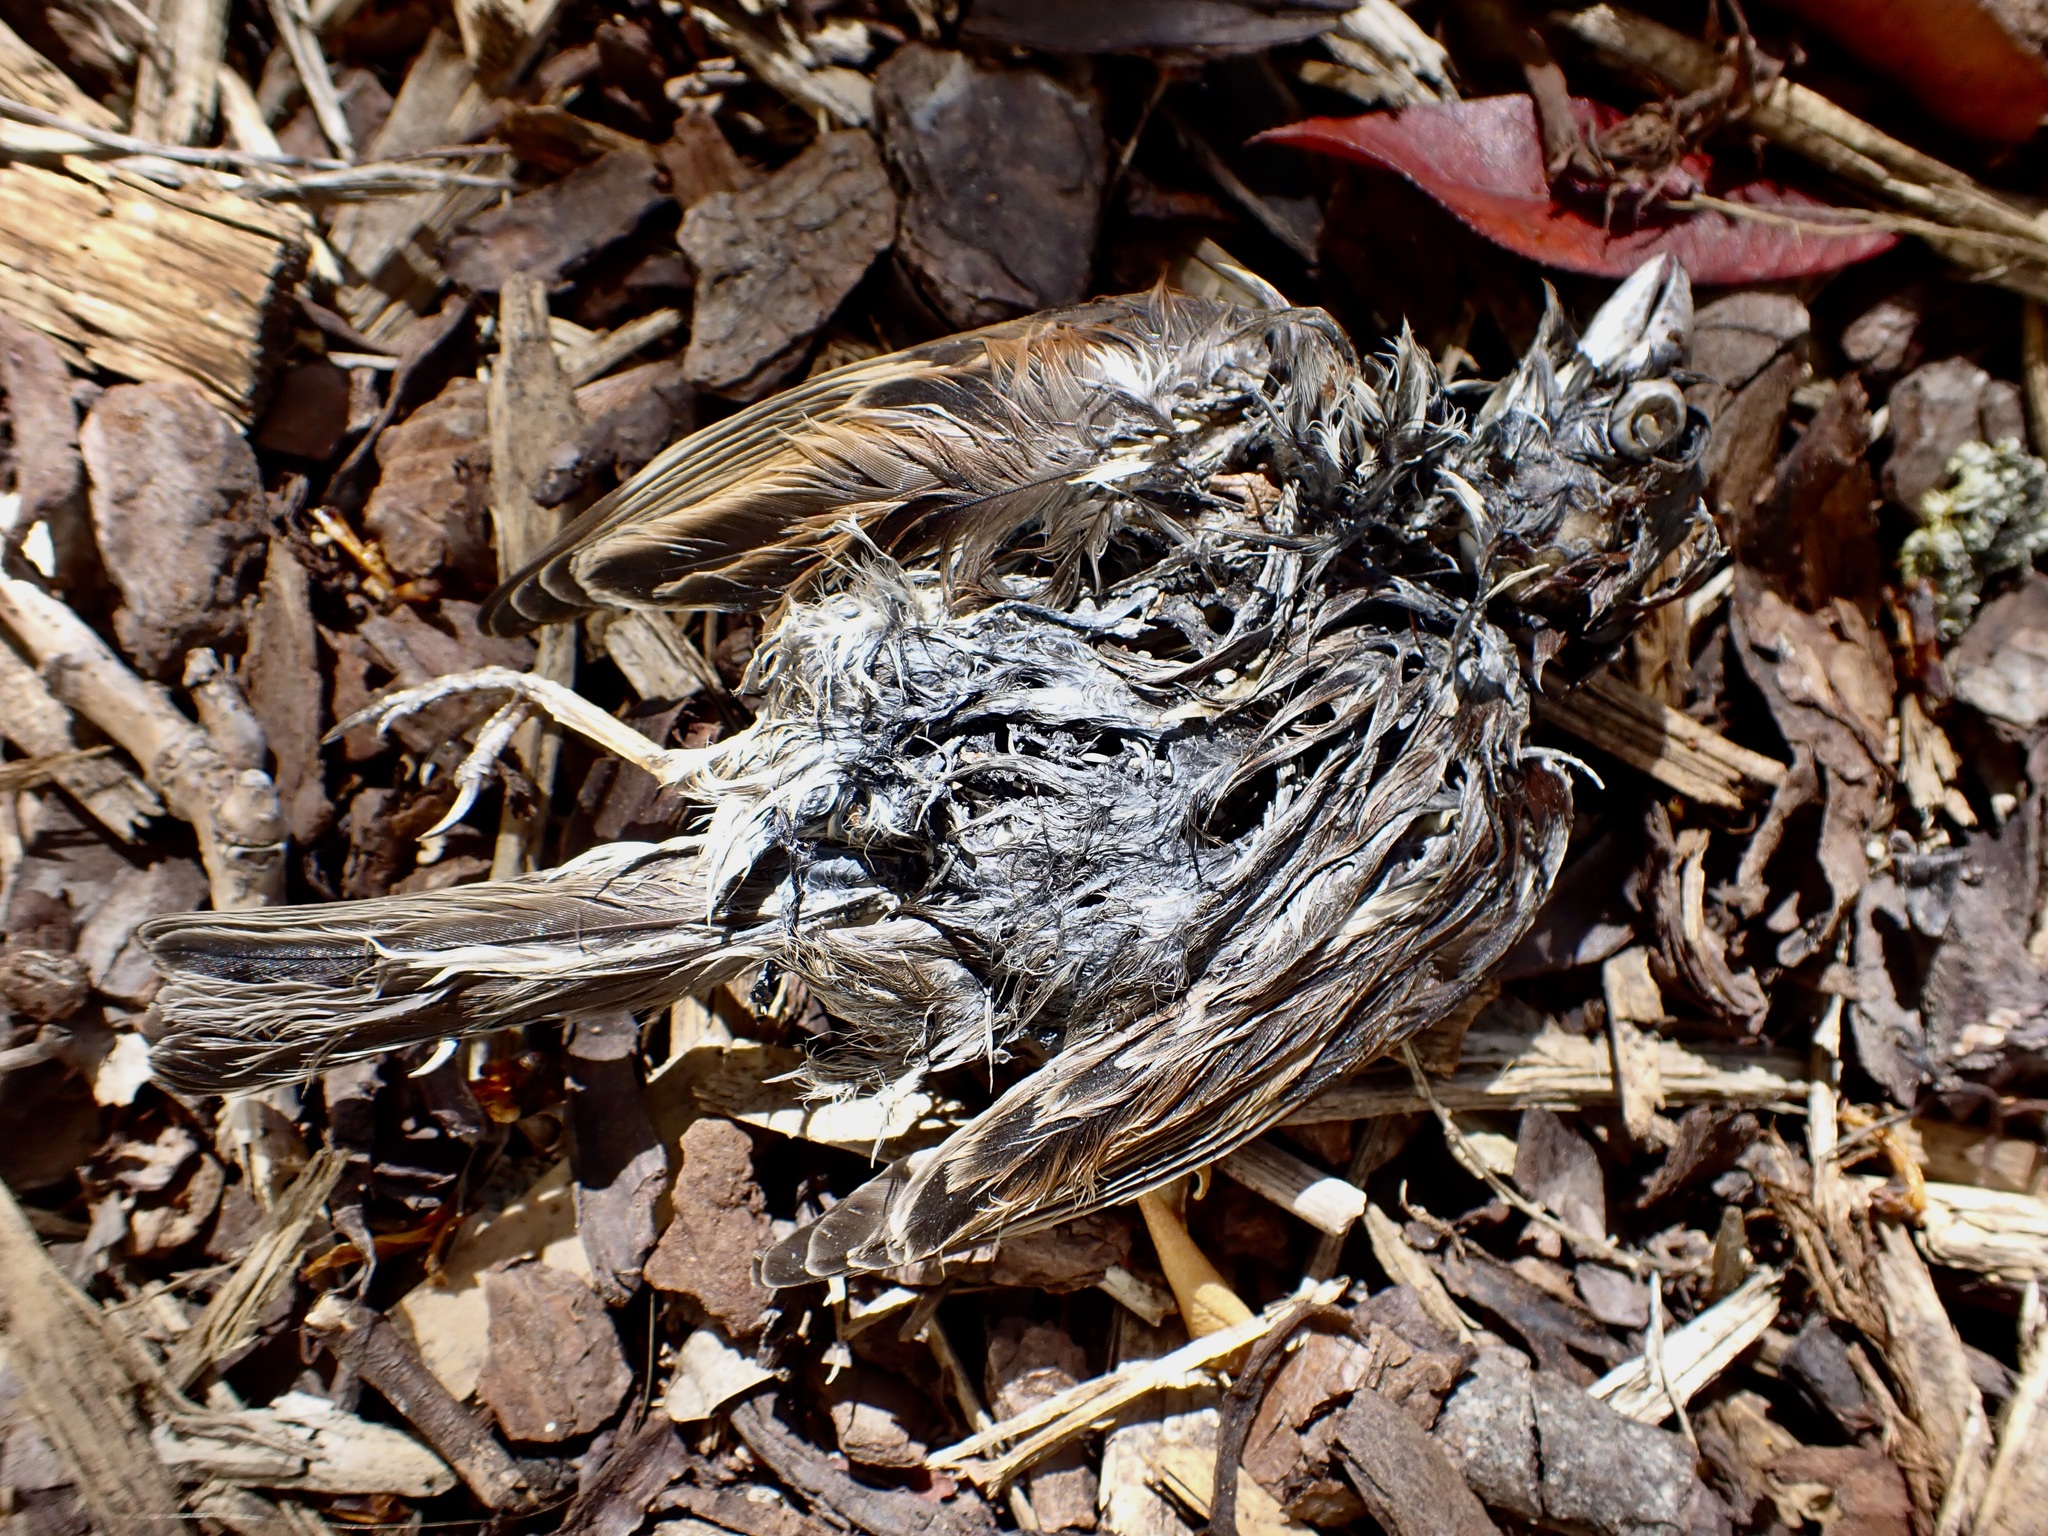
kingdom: Animalia
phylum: Chordata
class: Aves
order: Passeriformes
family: Passeridae
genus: Passer
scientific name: Passer domesticus
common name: House sparrow
